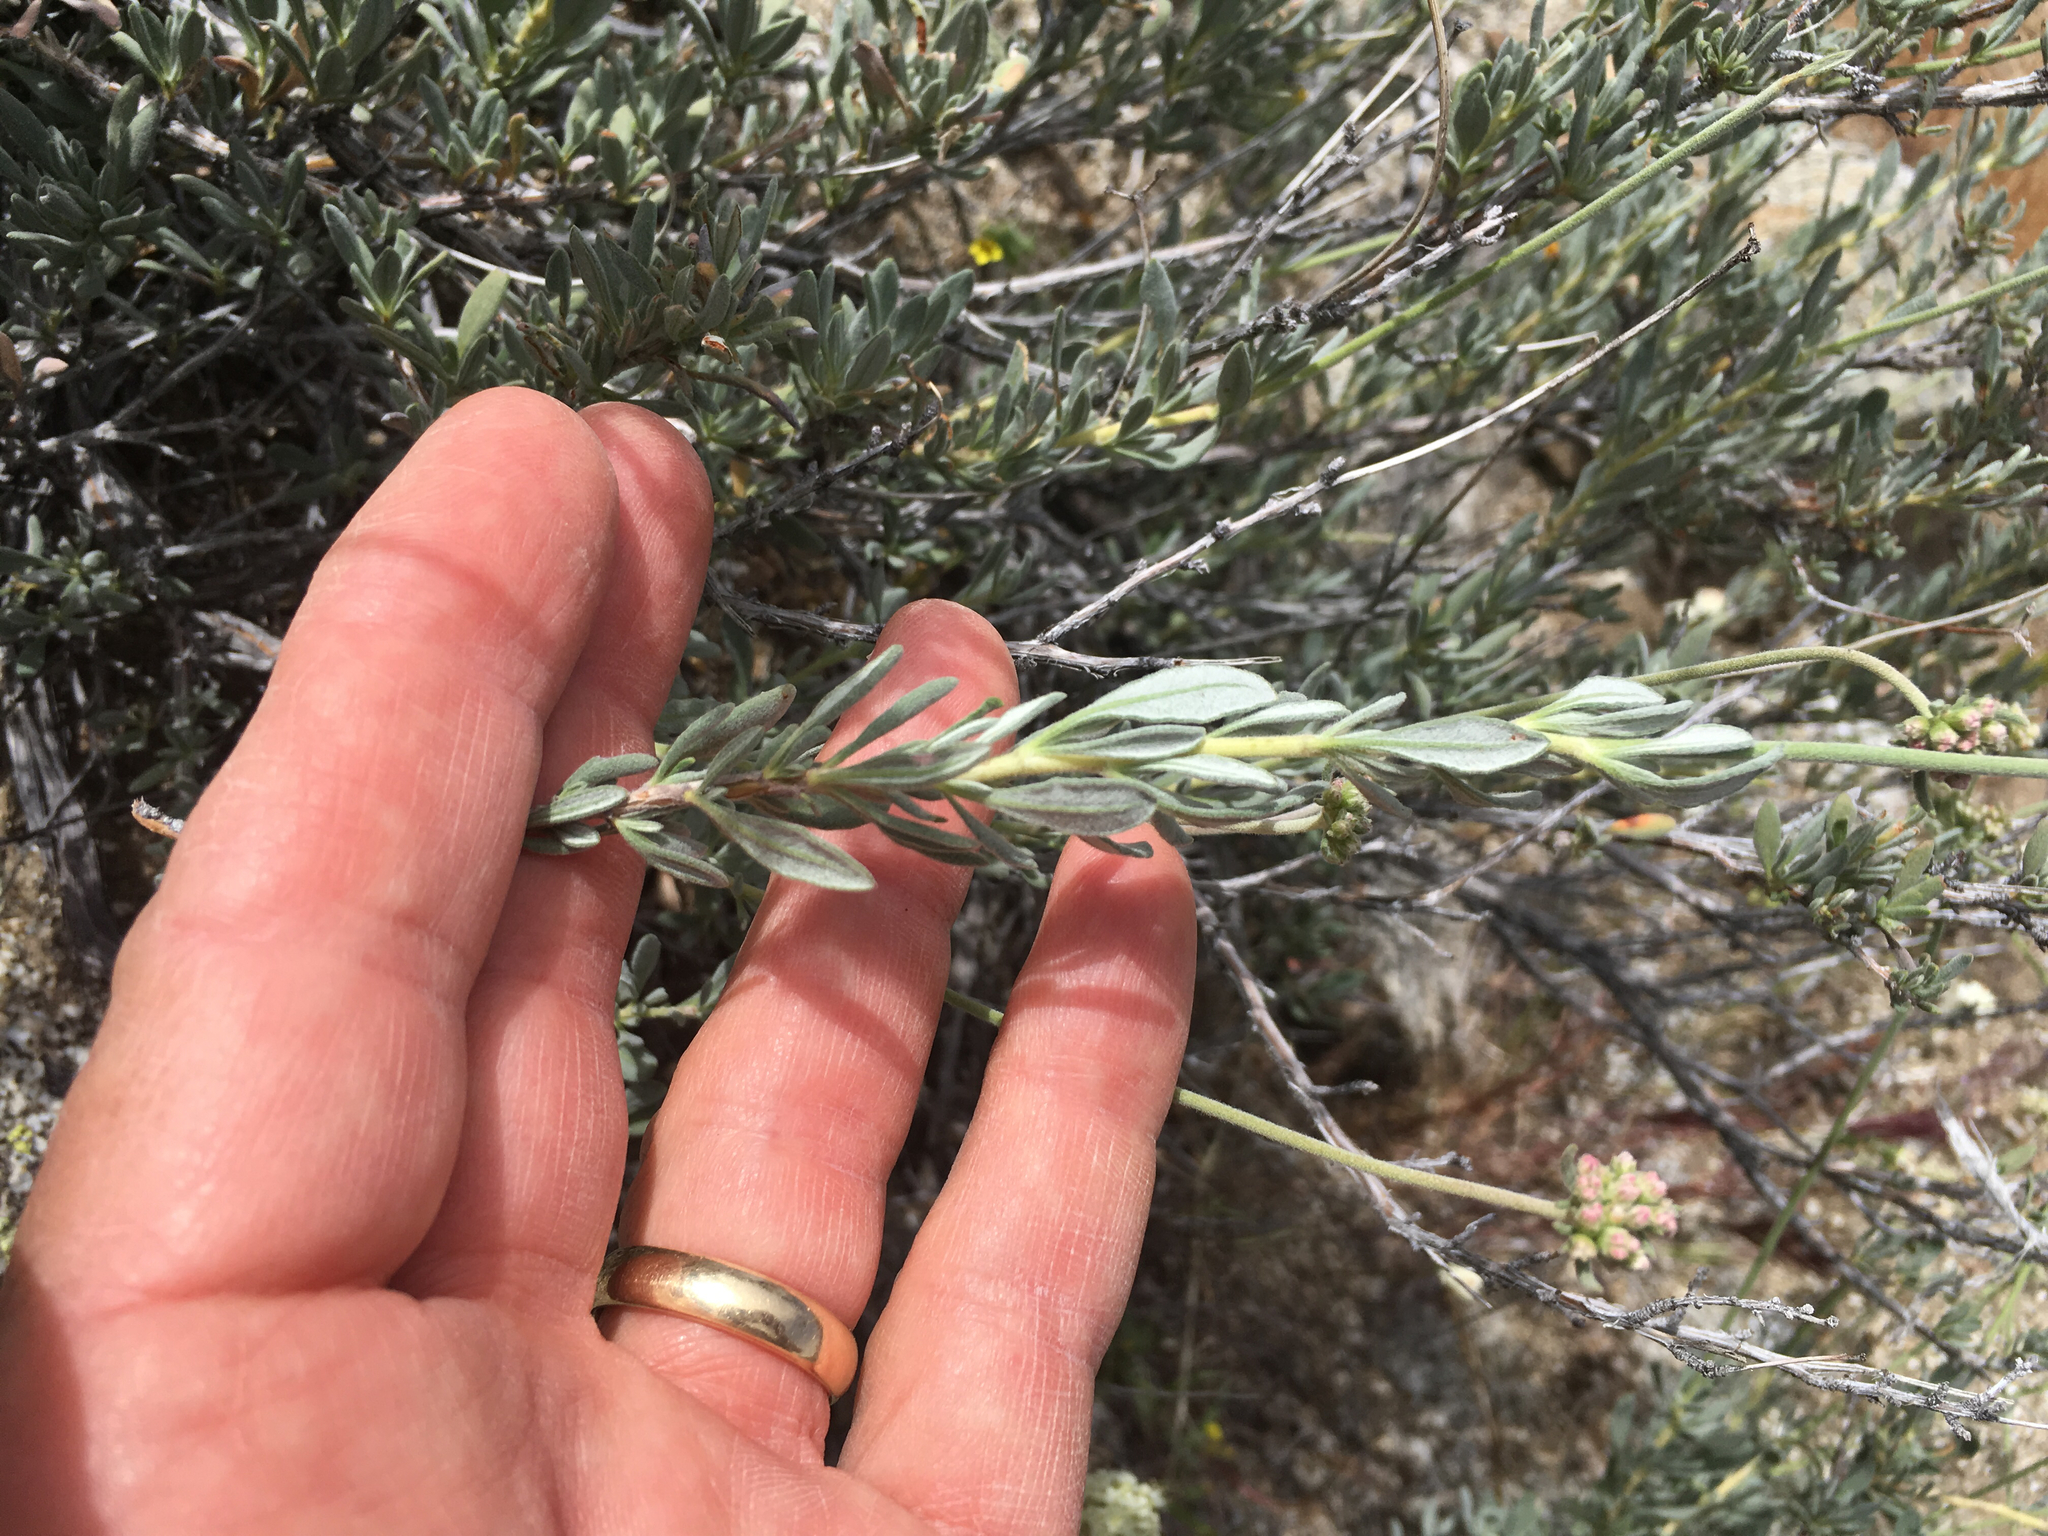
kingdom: Plantae
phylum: Tracheophyta
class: Magnoliopsida
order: Caryophyllales
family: Polygonaceae
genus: Eriogonum
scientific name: Eriogonum fasciculatum
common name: California wild buckwheat
